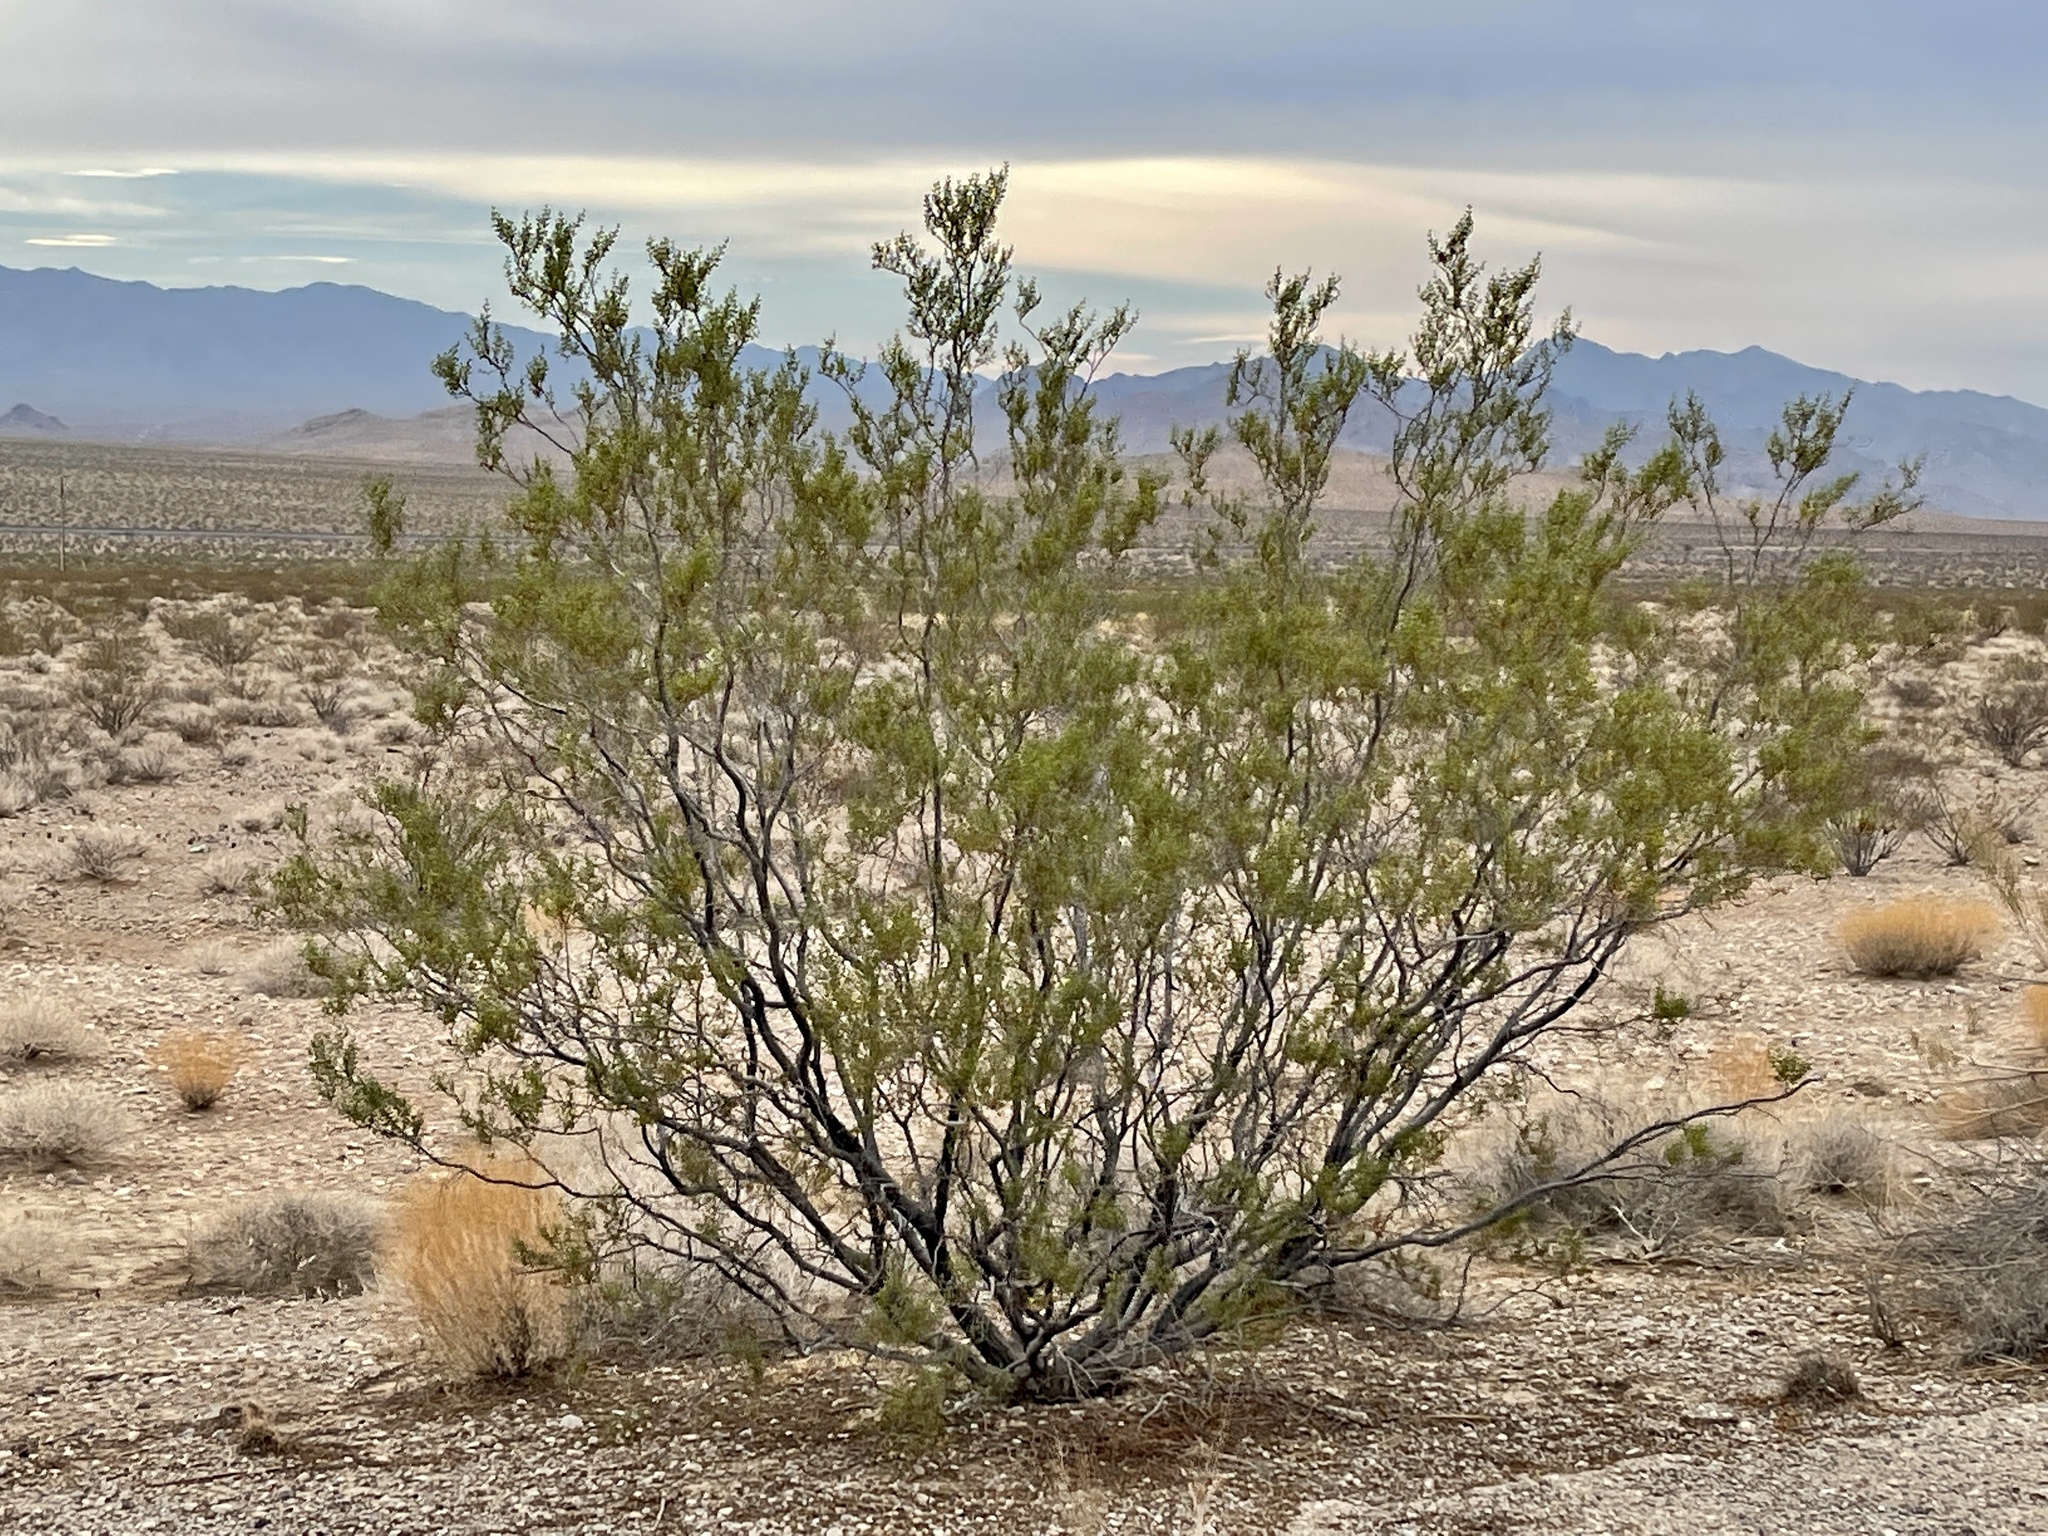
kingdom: Plantae
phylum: Tracheophyta
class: Magnoliopsida
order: Zygophyllales
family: Zygophyllaceae
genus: Larrea
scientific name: Larrea tridentata
